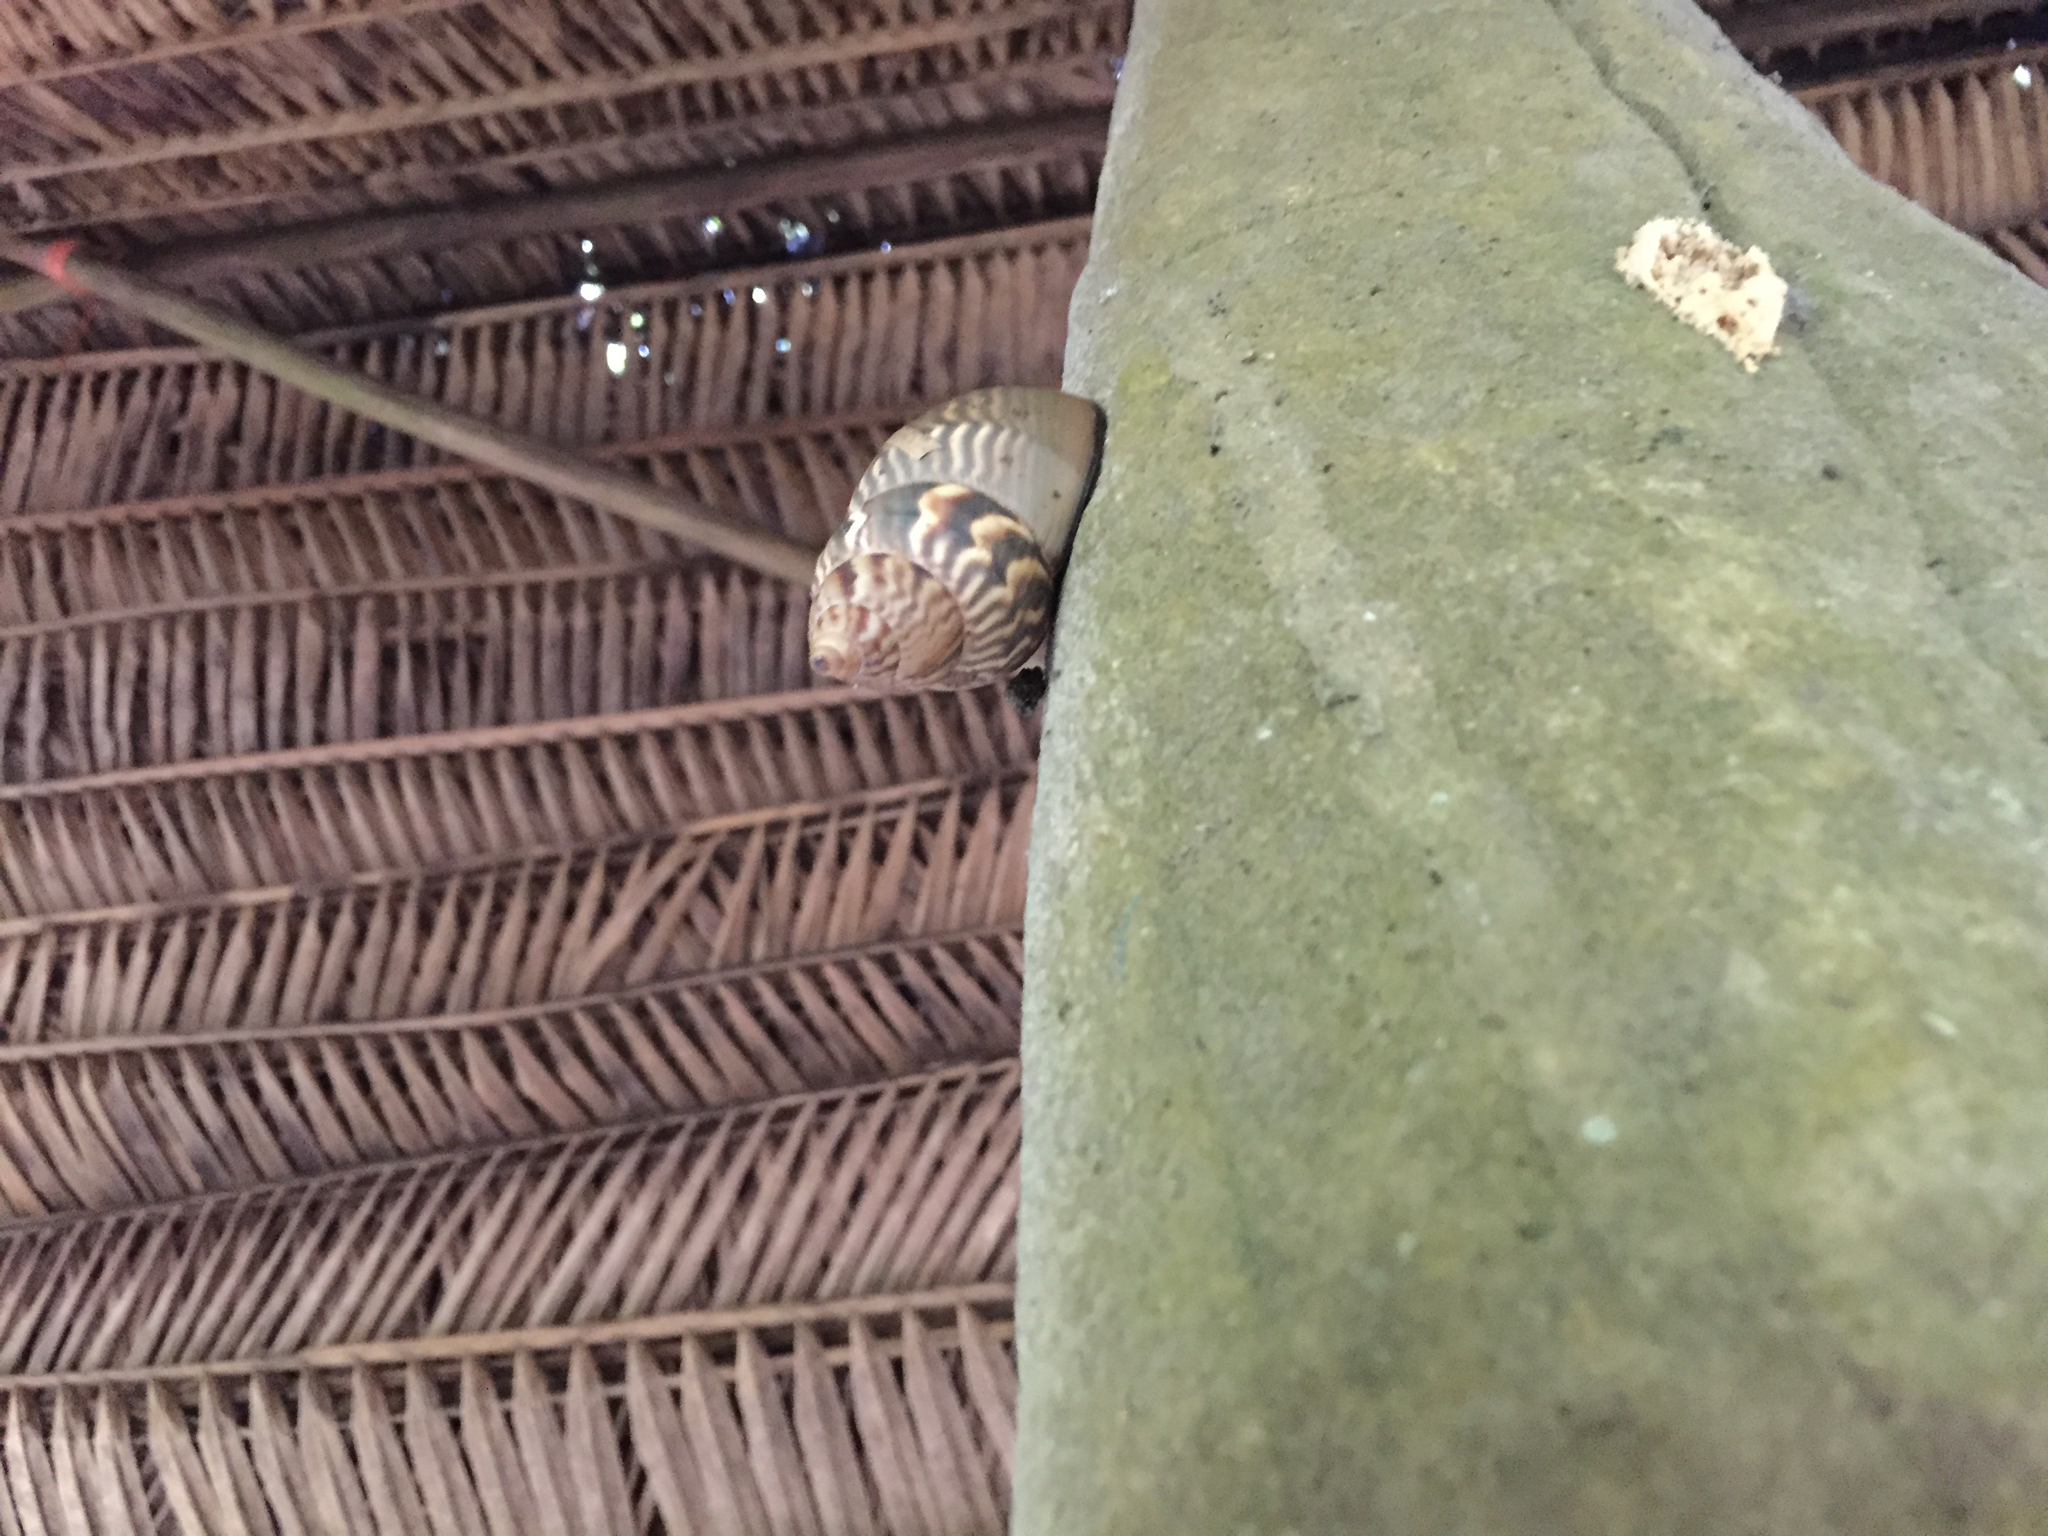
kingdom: Animalia
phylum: Mollusca
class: Gastropoda
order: Stylommatophora
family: Orthalicidae
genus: Orthalicus
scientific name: Orthalicus princeps
